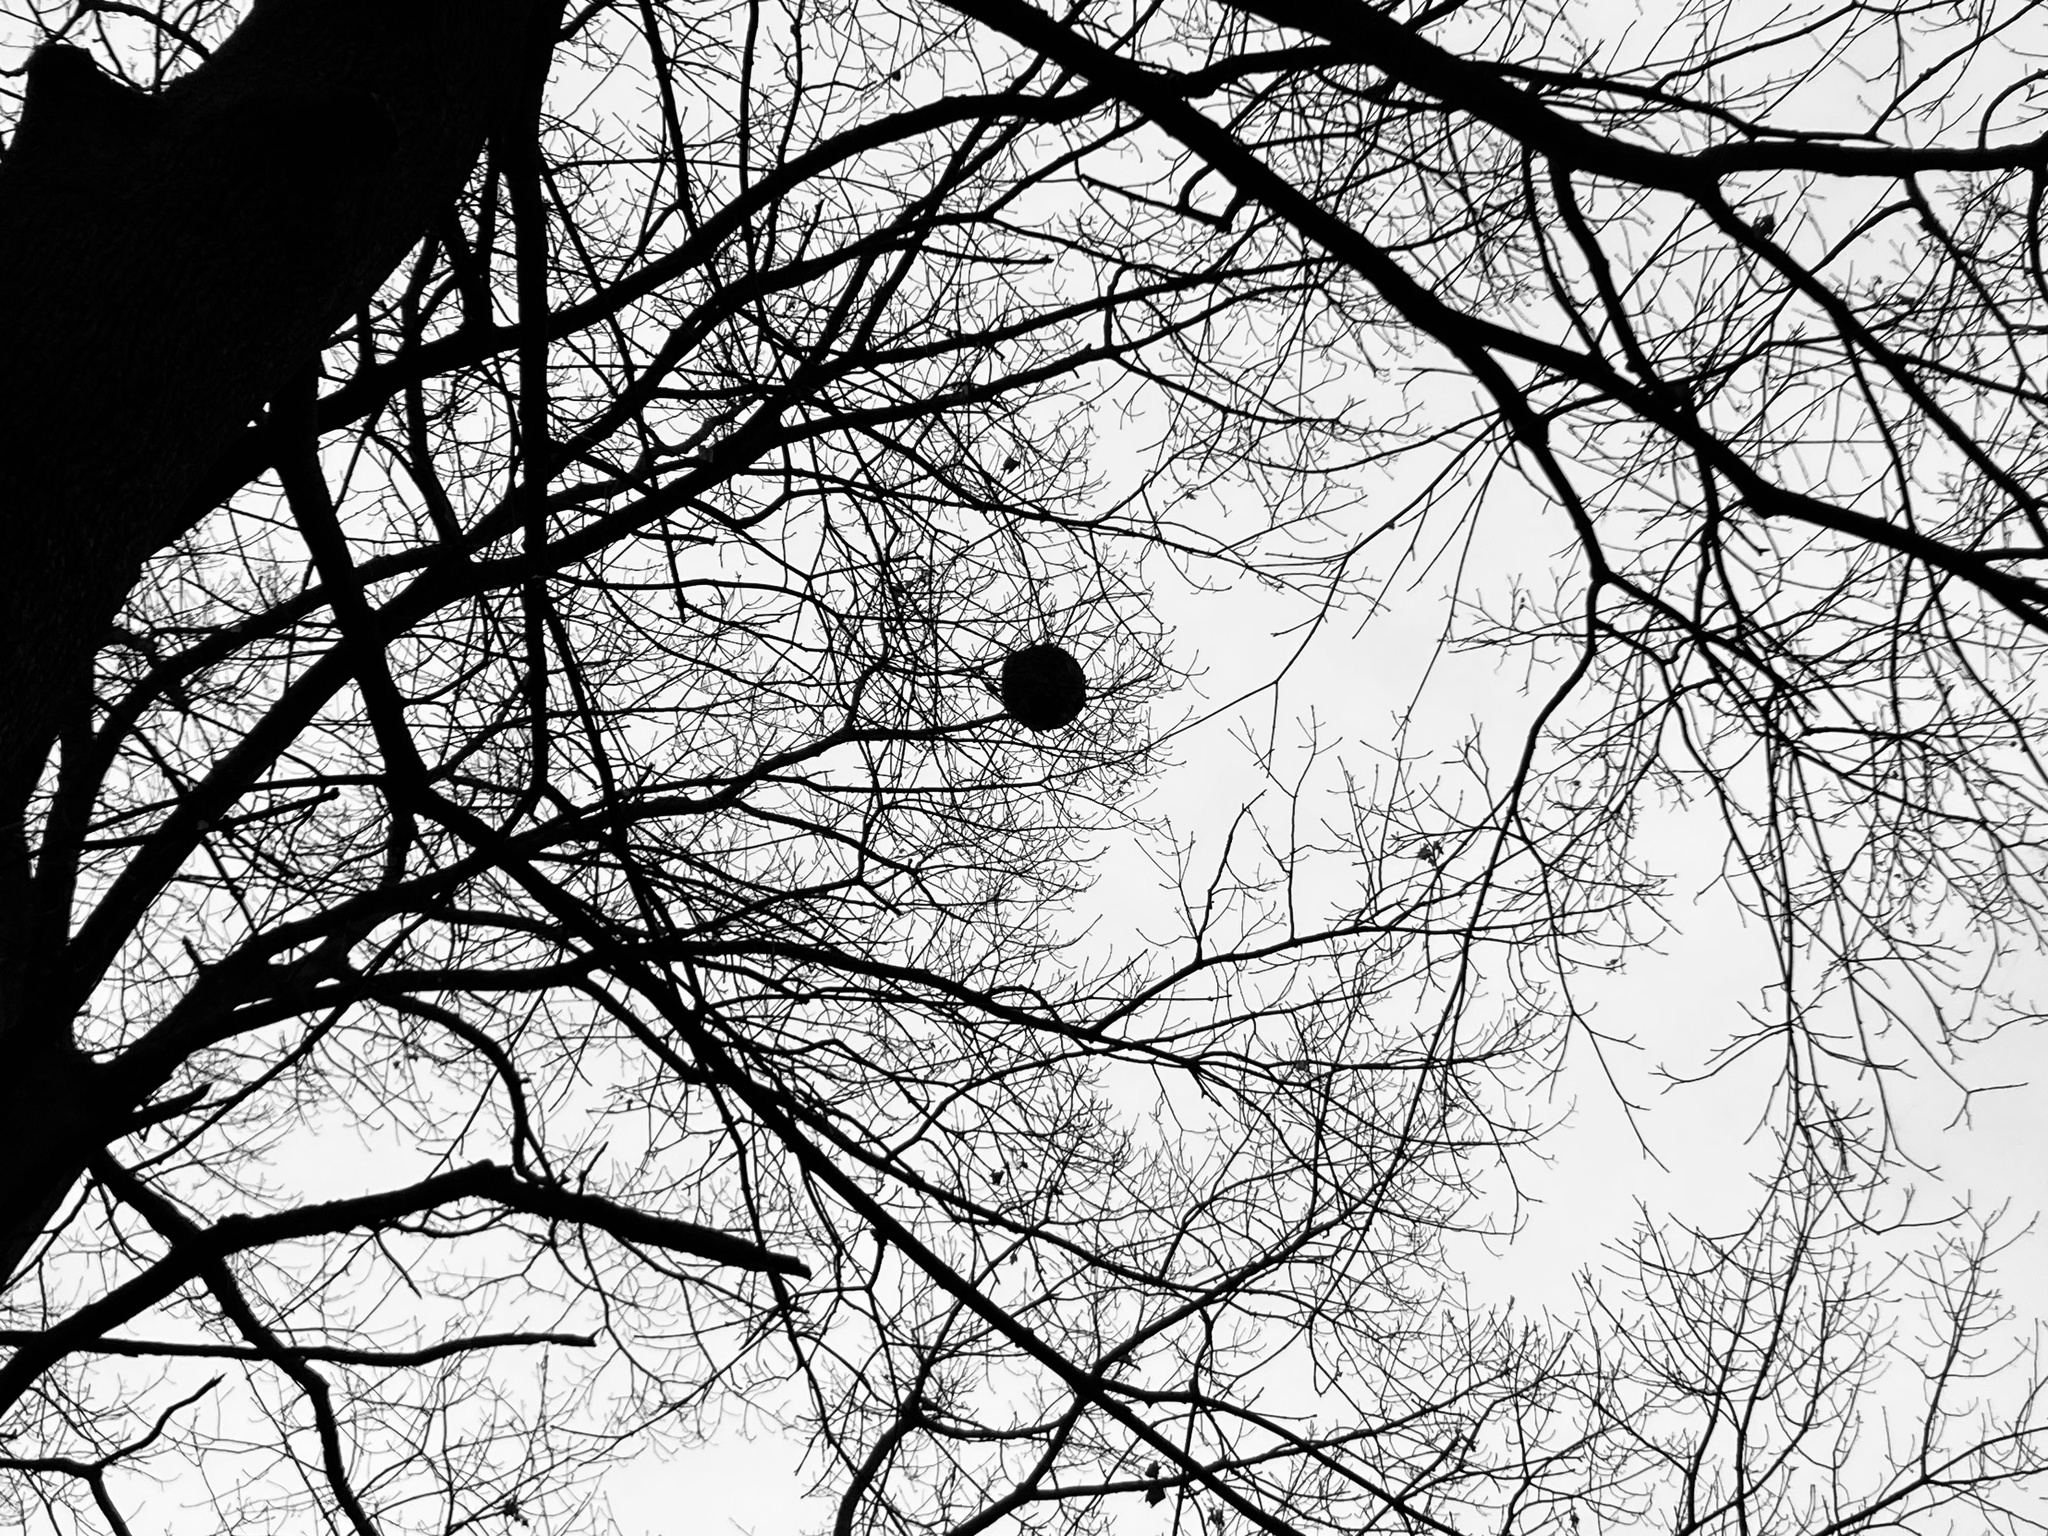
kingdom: Animalia
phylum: Arthropoda
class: Insecta
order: Hymenoptera
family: Vespidae
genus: Dolichovespula
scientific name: Dolichovespula
